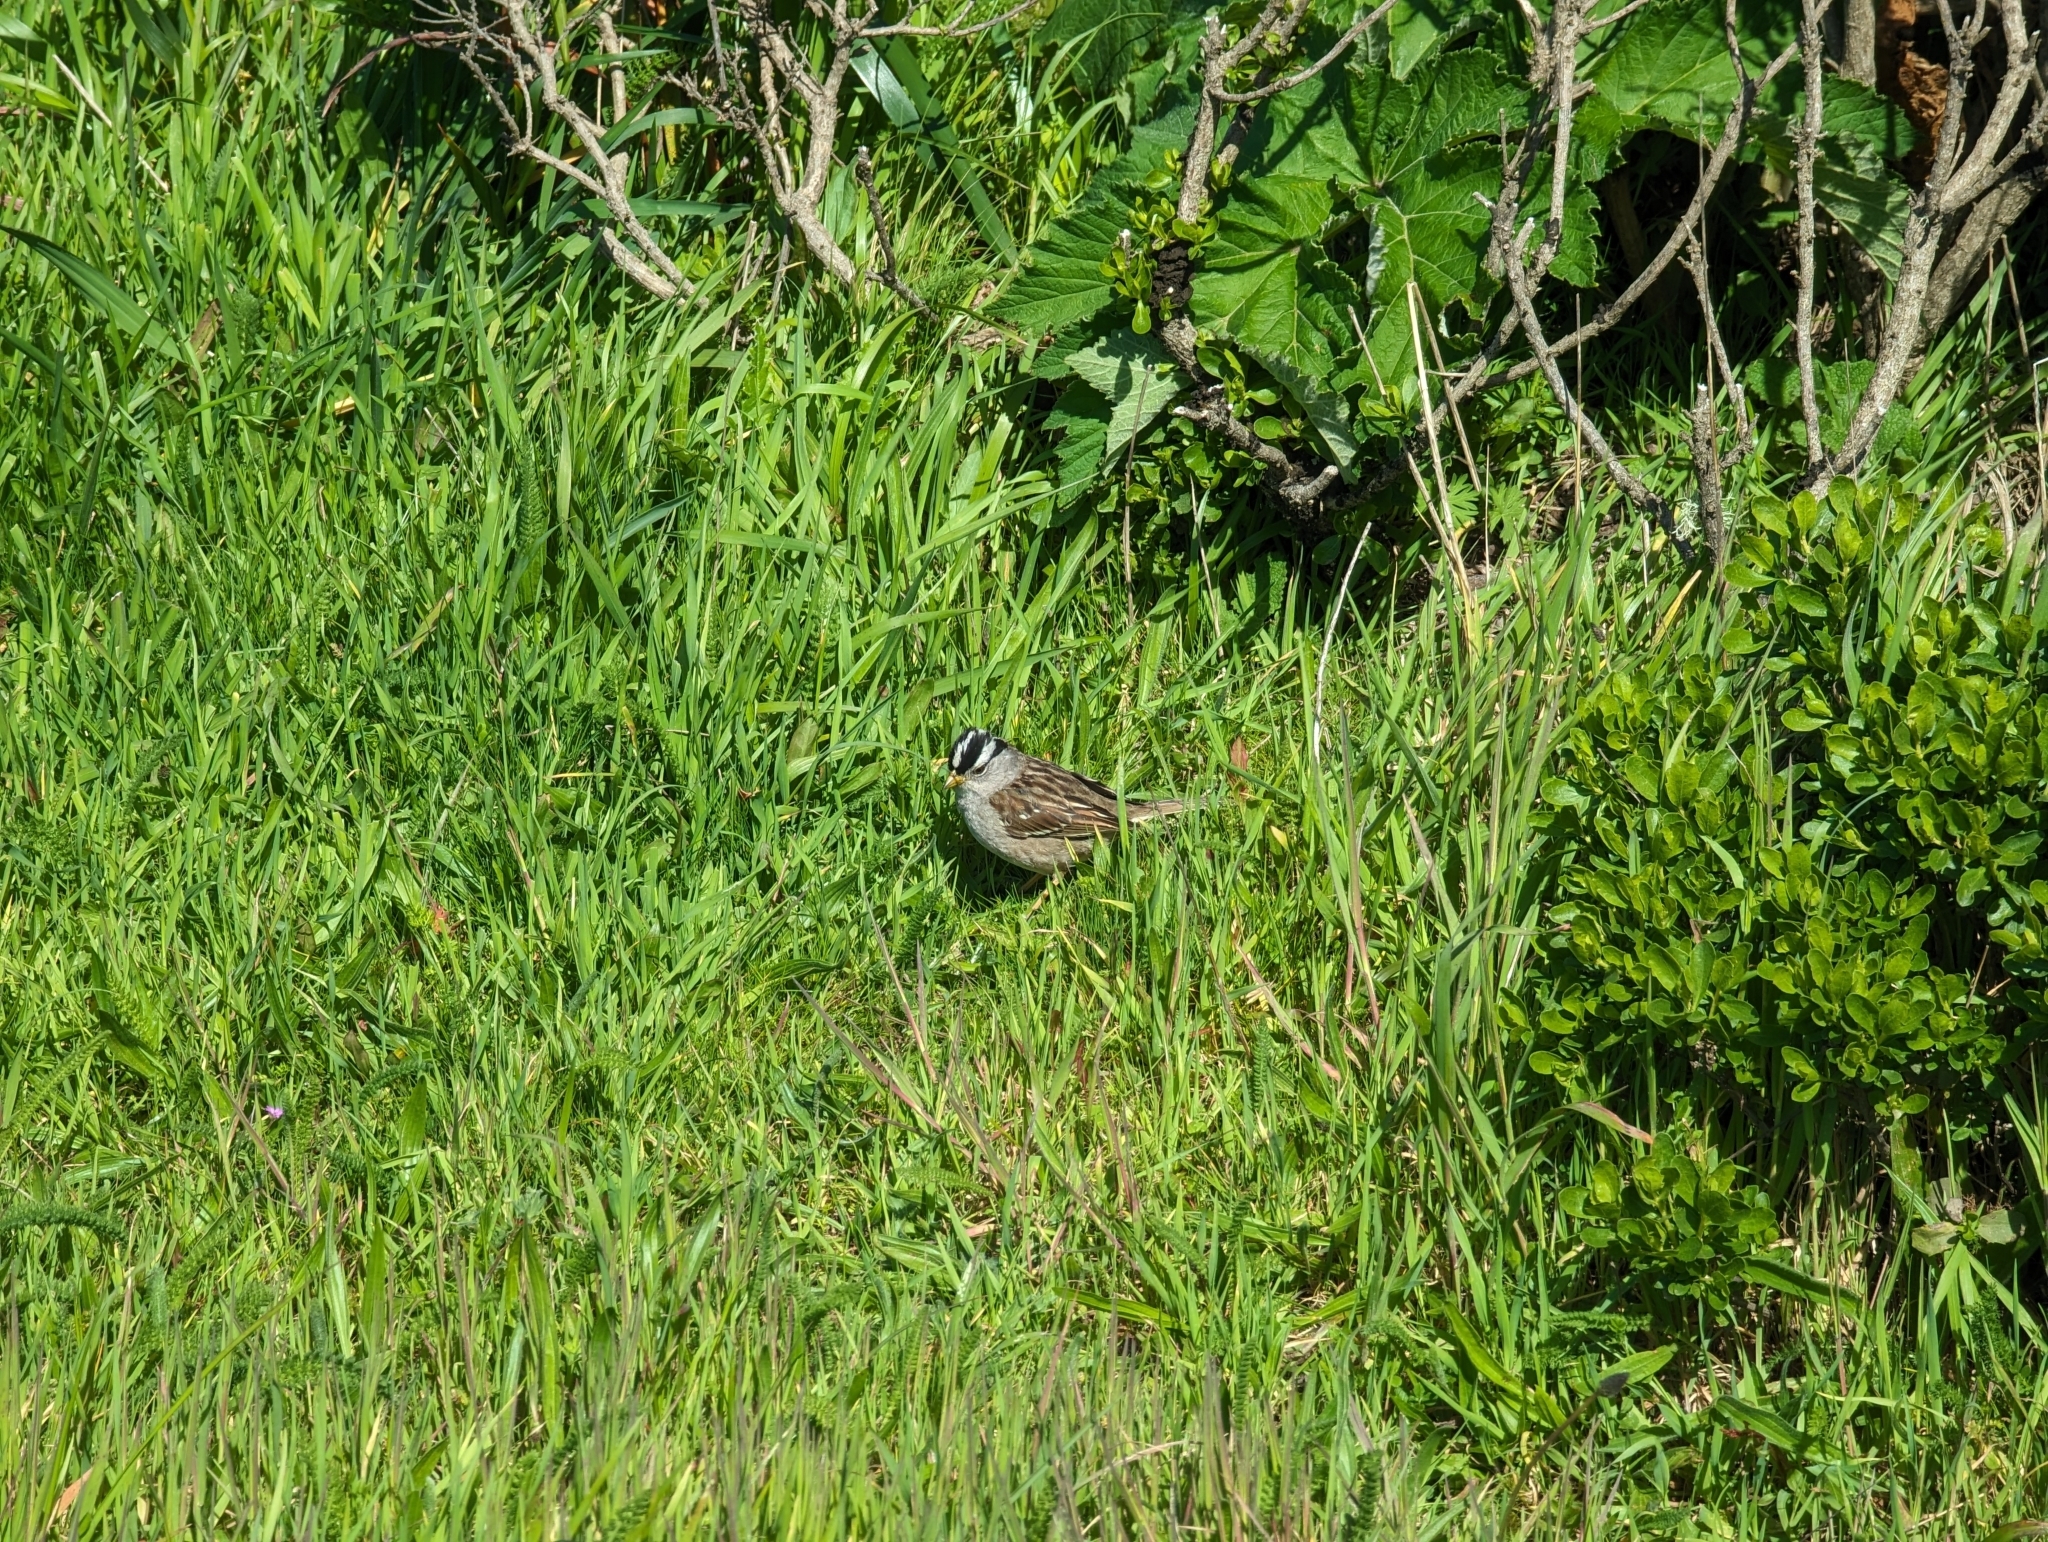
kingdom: Animalia
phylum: Chordata
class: Aves
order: Passeriformes
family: Passerellidae
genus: Zonotrichia
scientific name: Zonotrichia leucophrys
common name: White-crowned sparrow
